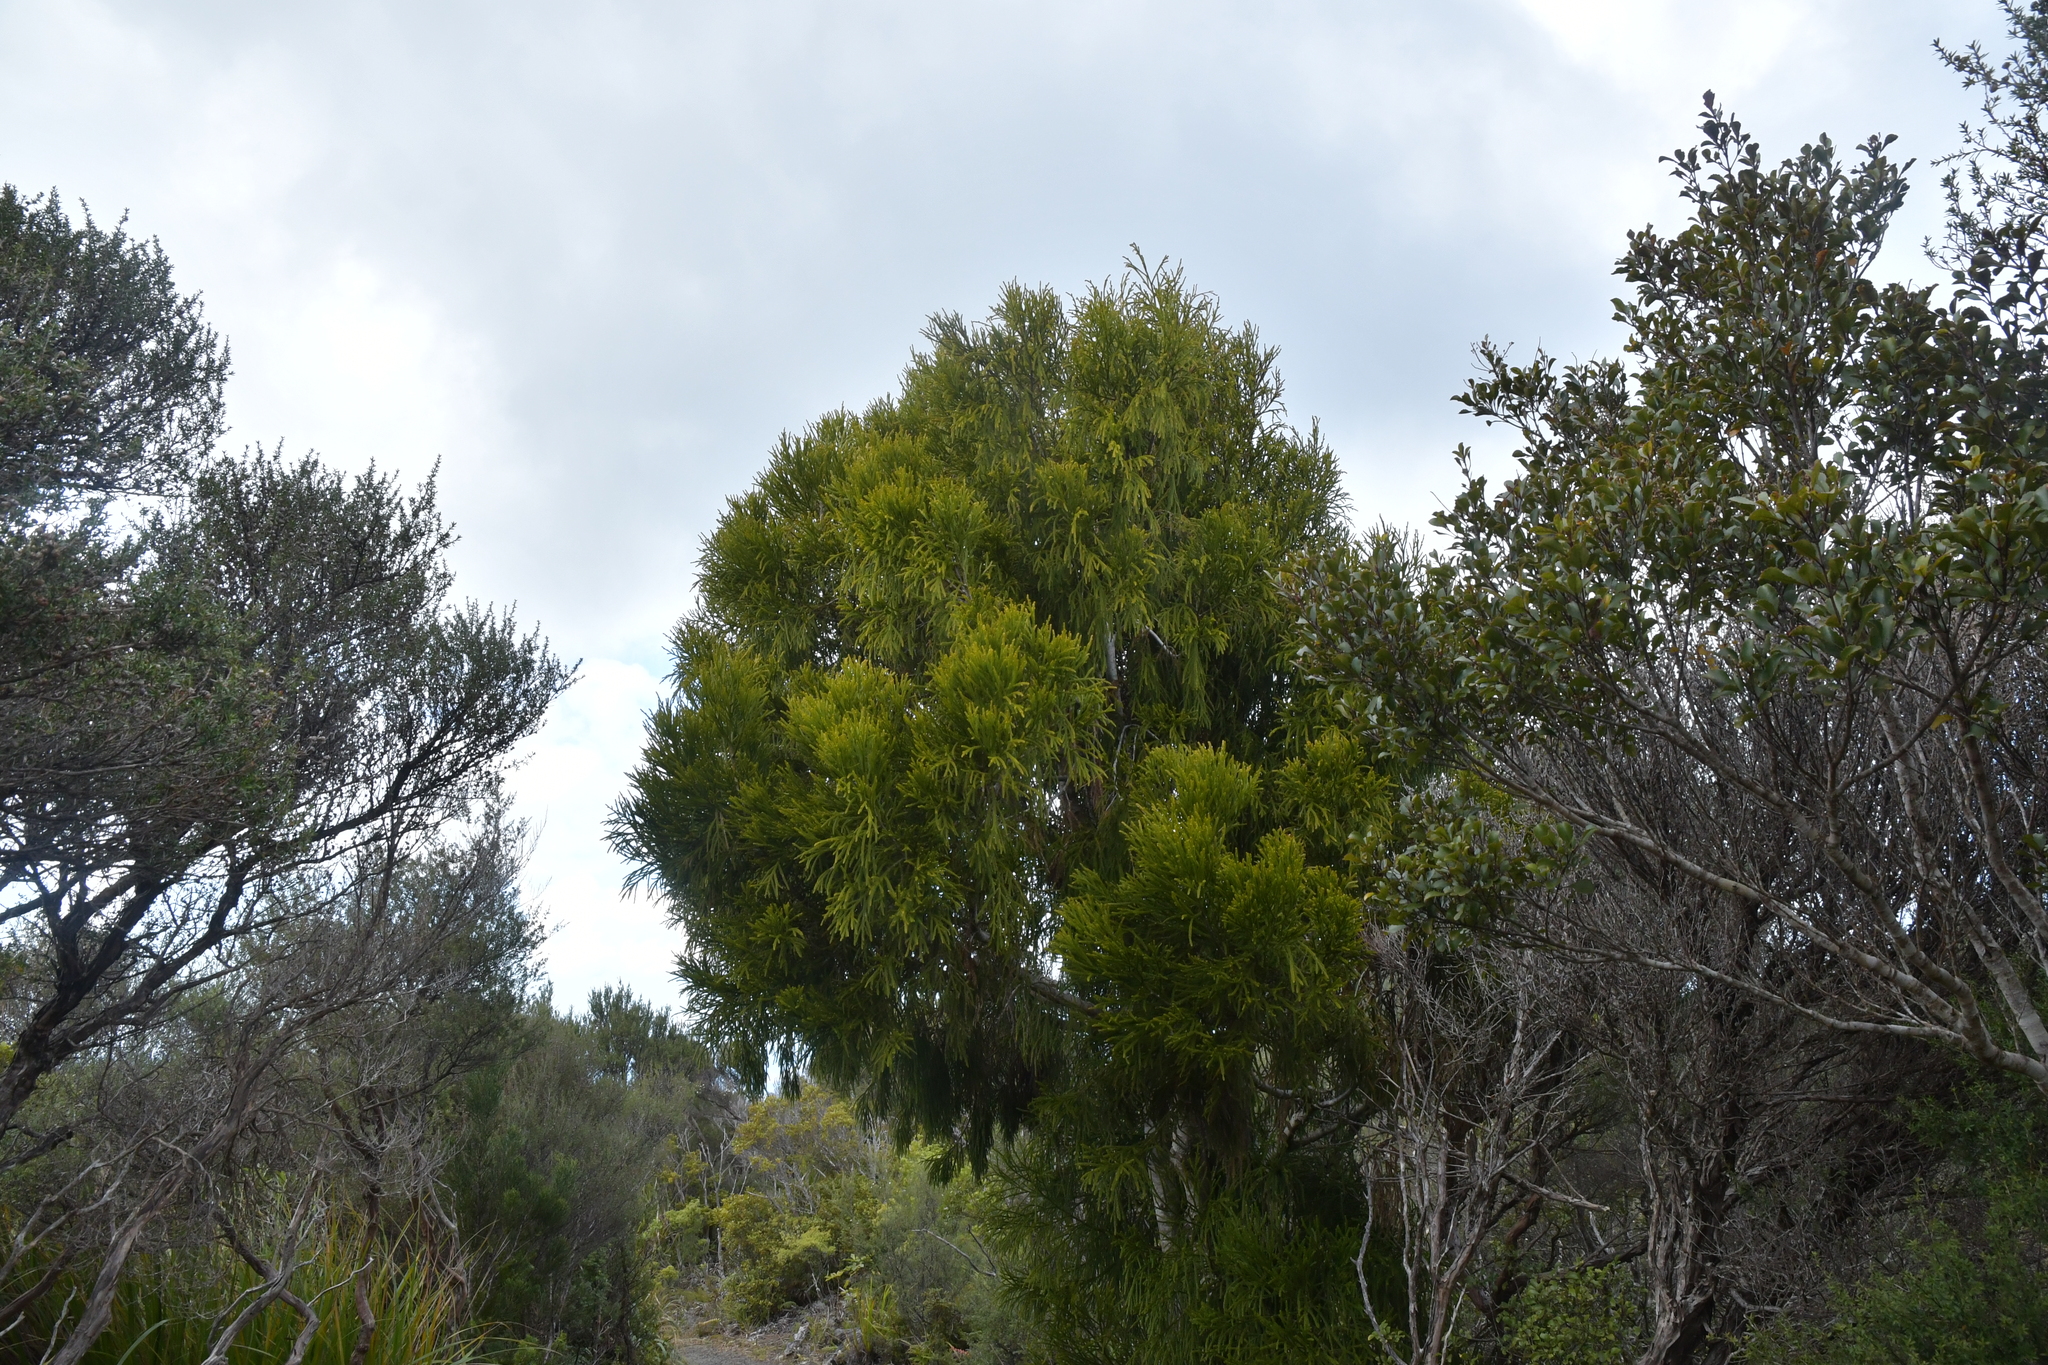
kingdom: Plantae
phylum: Tracheophyta
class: Pinopsida
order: Pinales
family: Podocarpaceae
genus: Dacrydium
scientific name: Dacrydium cupressinum
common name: Red pine
